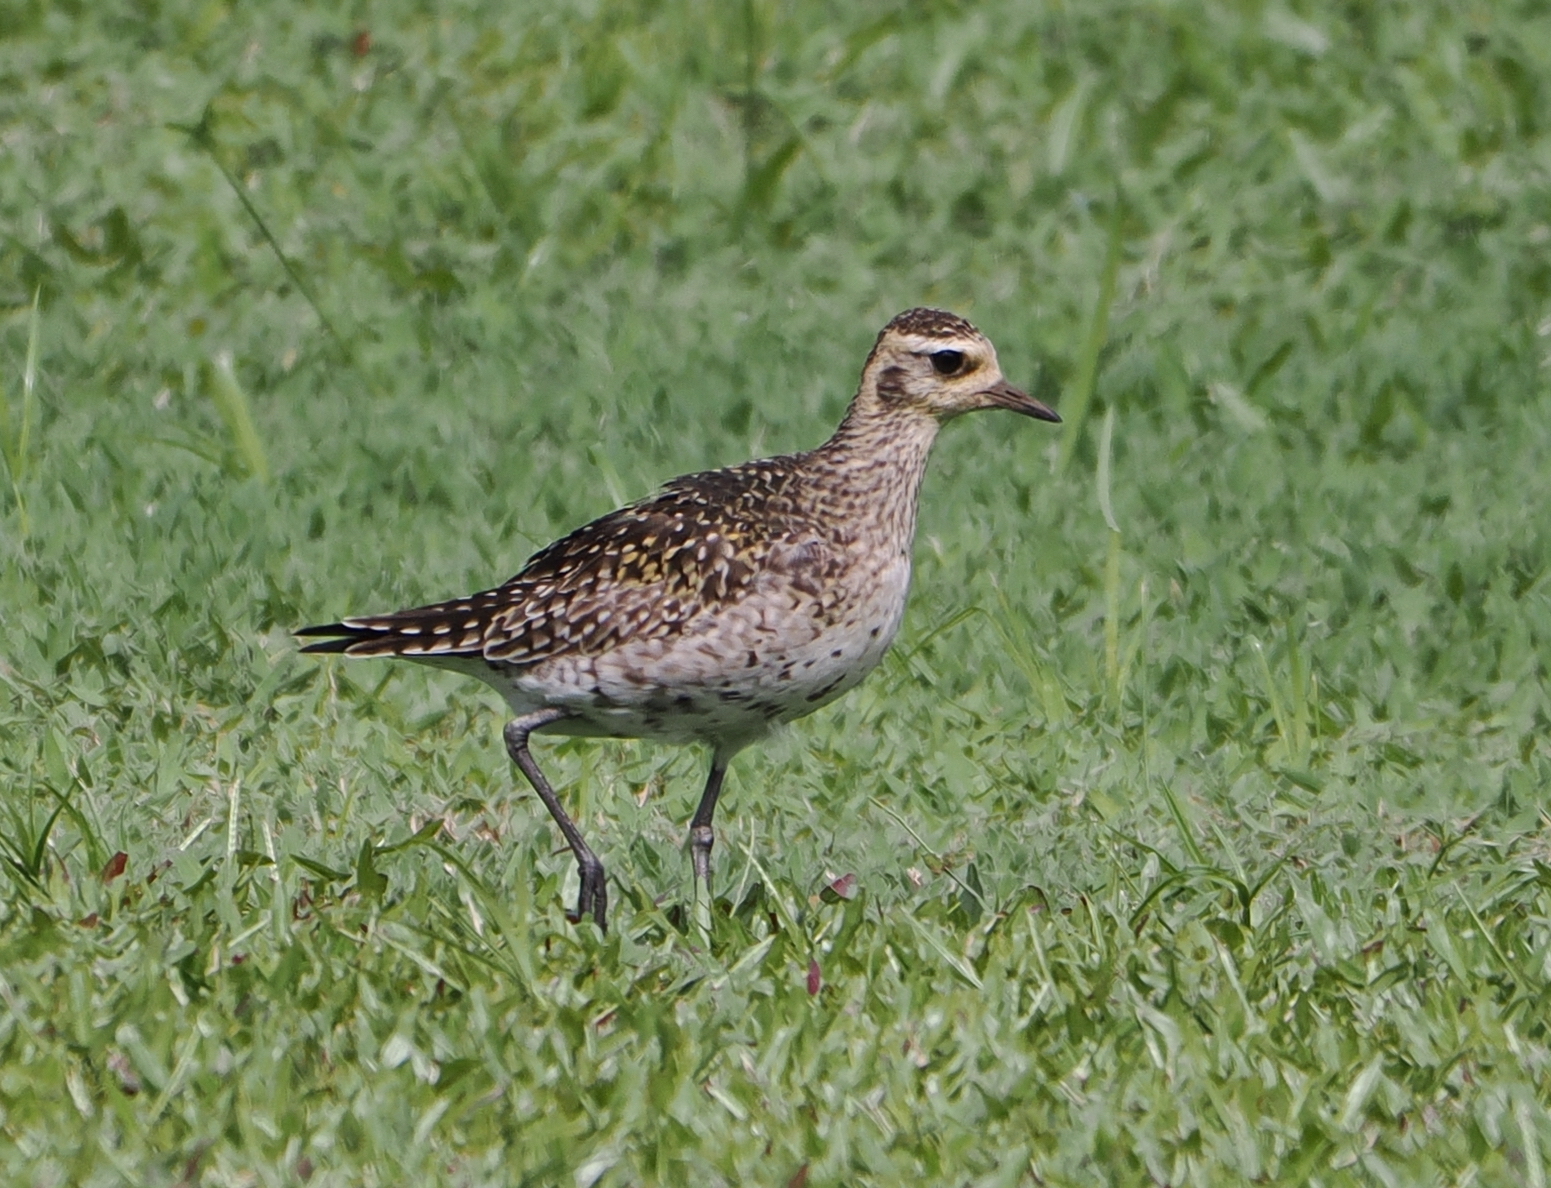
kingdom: Animalia
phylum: Chordata
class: Aves
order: Charadriiformes
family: Charadriidae
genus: Pluvialis
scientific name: Pluvialis fulva
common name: Pacific golden plover
